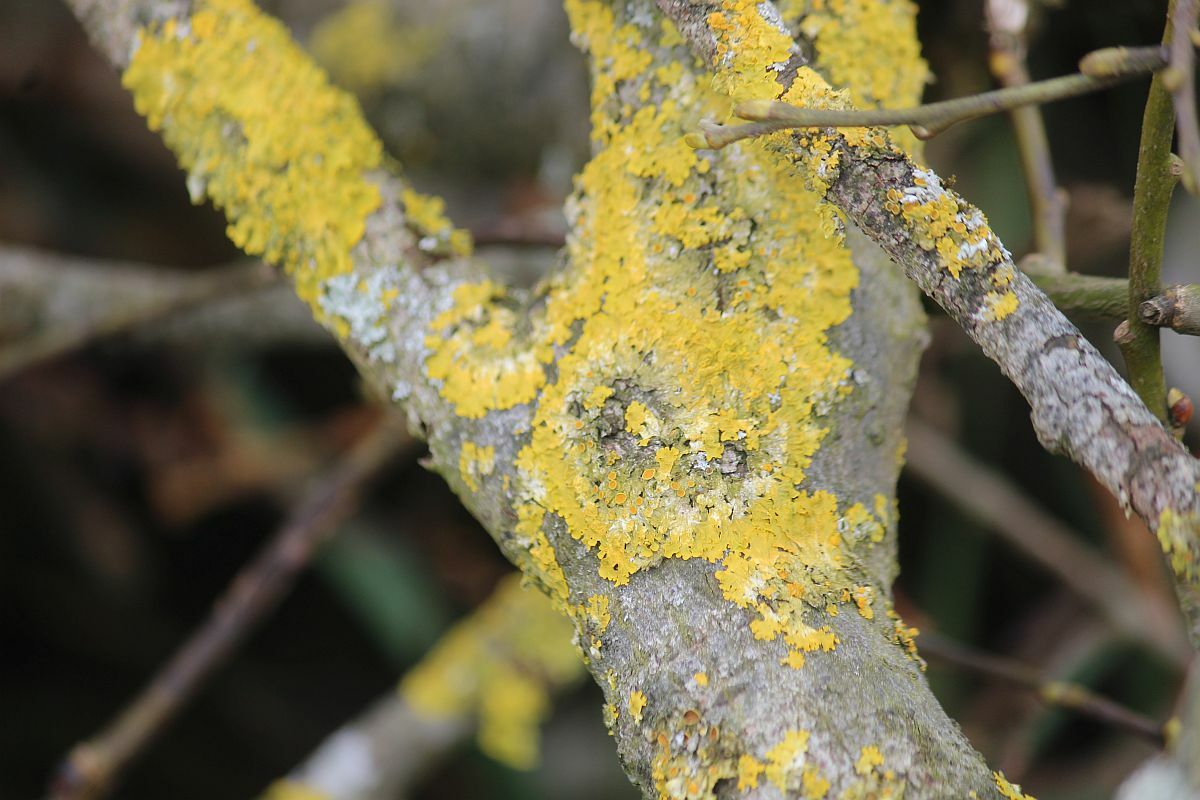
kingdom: Fungi
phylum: Ascomycota
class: Lecanoromycetes
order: Teloschistales
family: Teloschistaceae
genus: Xanthoria
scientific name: Xanthoria parietina
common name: Common orange lichen
